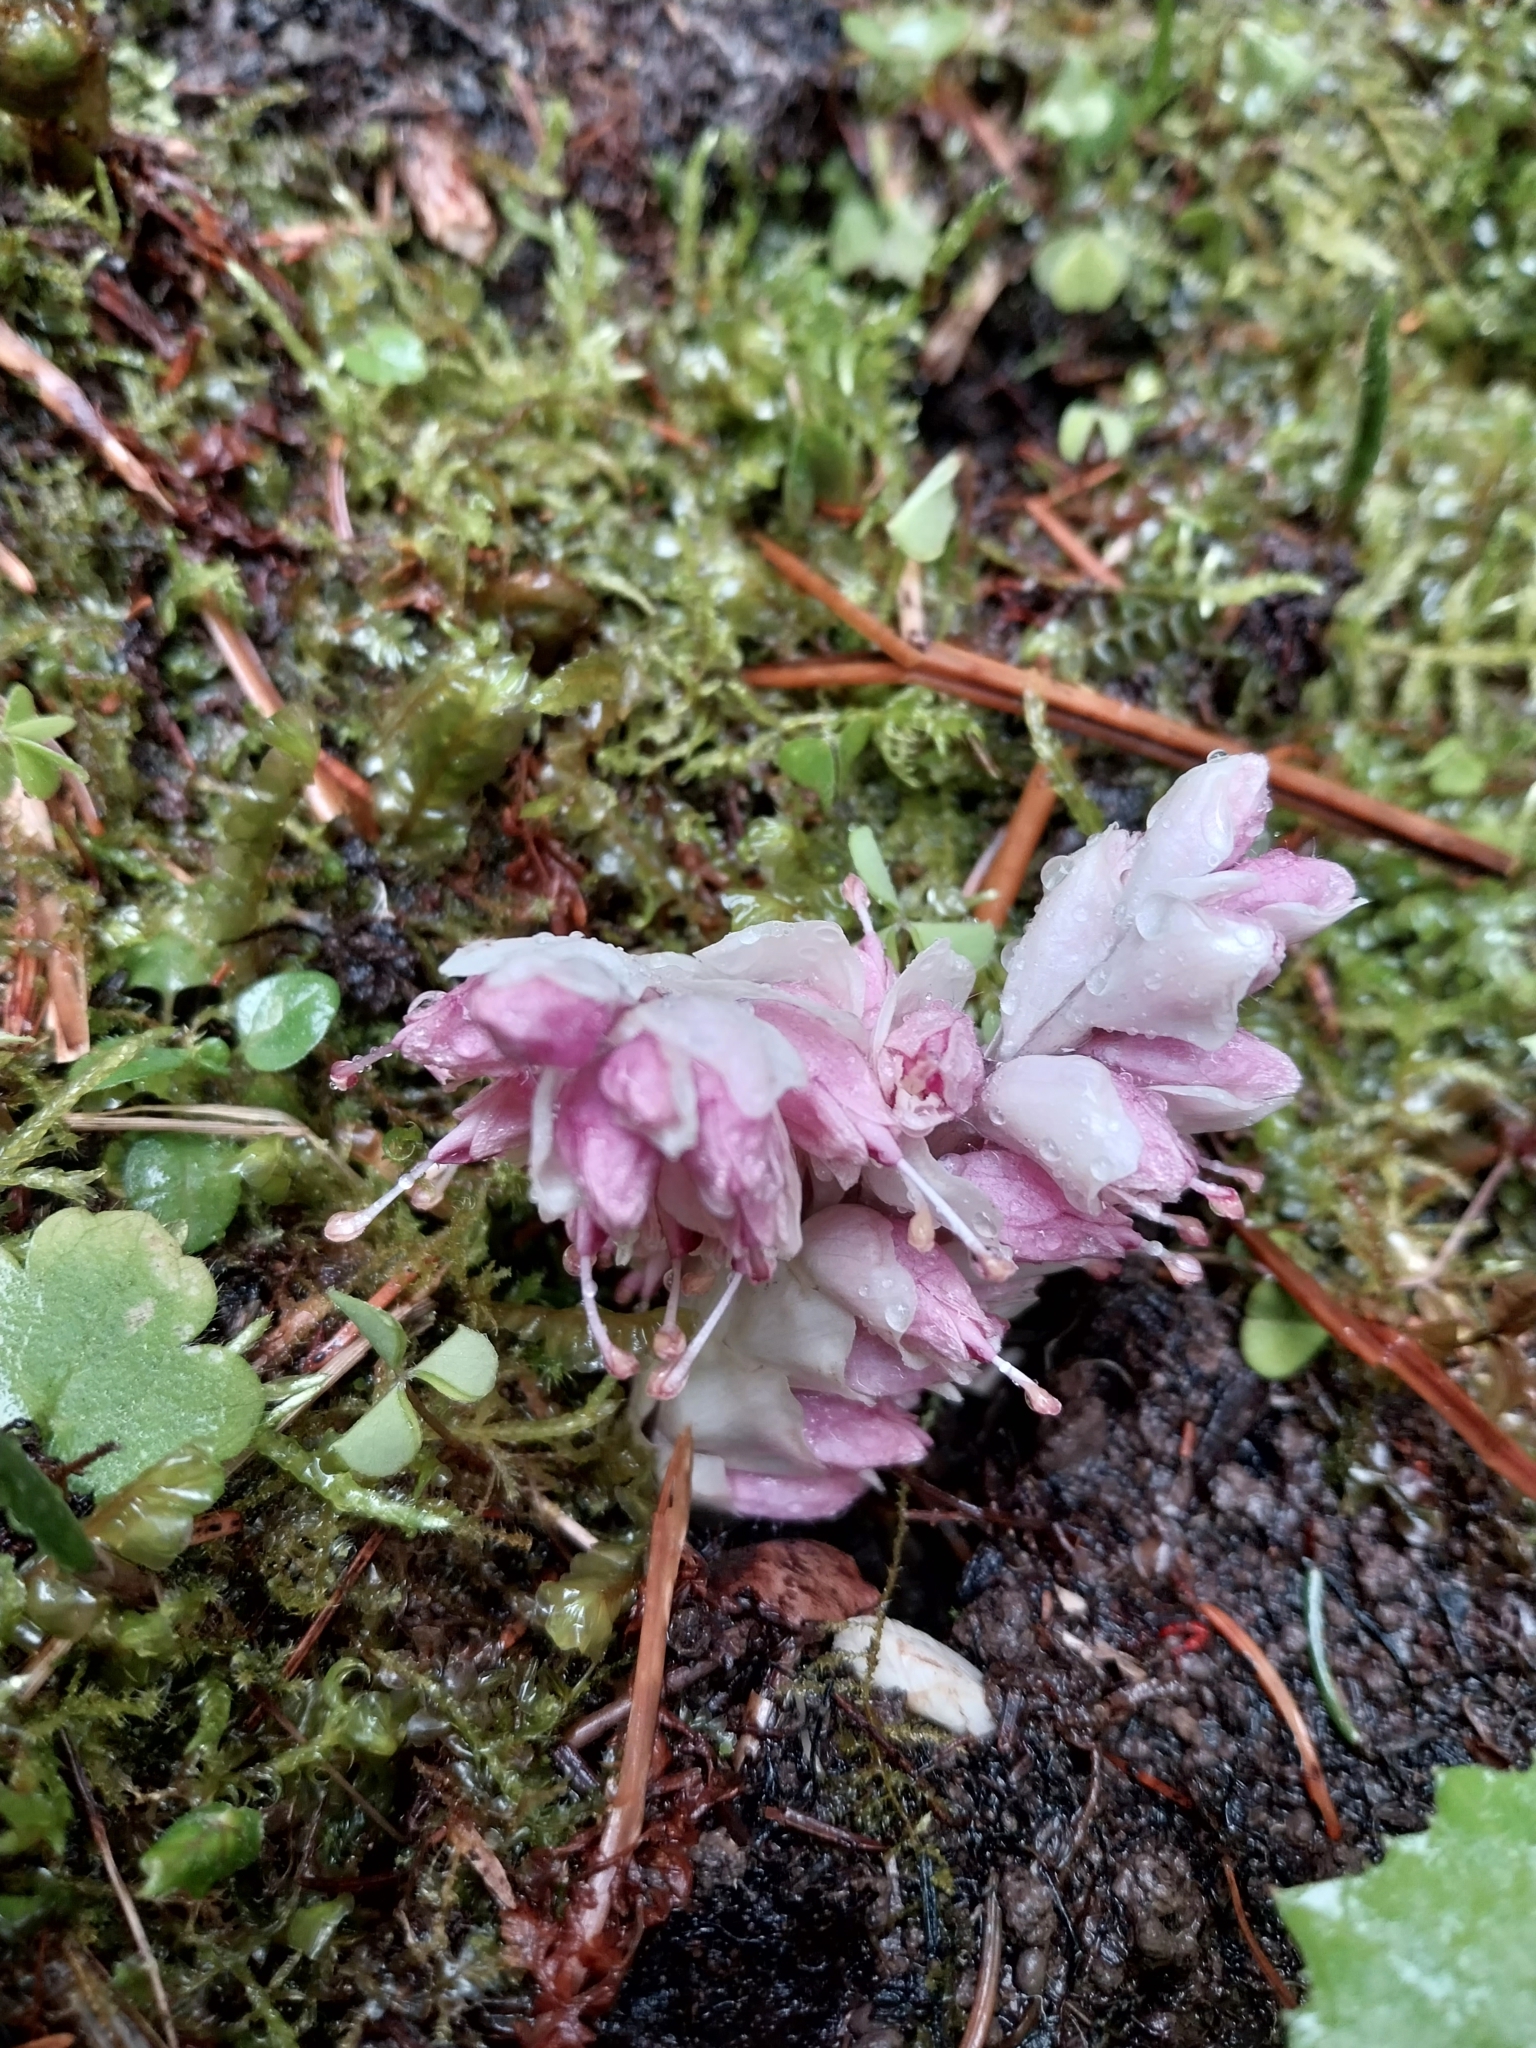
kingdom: Plantae
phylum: Tracheophyta
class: Magnoliopsida
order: Lamiales
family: Orobanchaceae
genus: Lathraea
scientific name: Lathraea squamaria
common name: Toothwort
